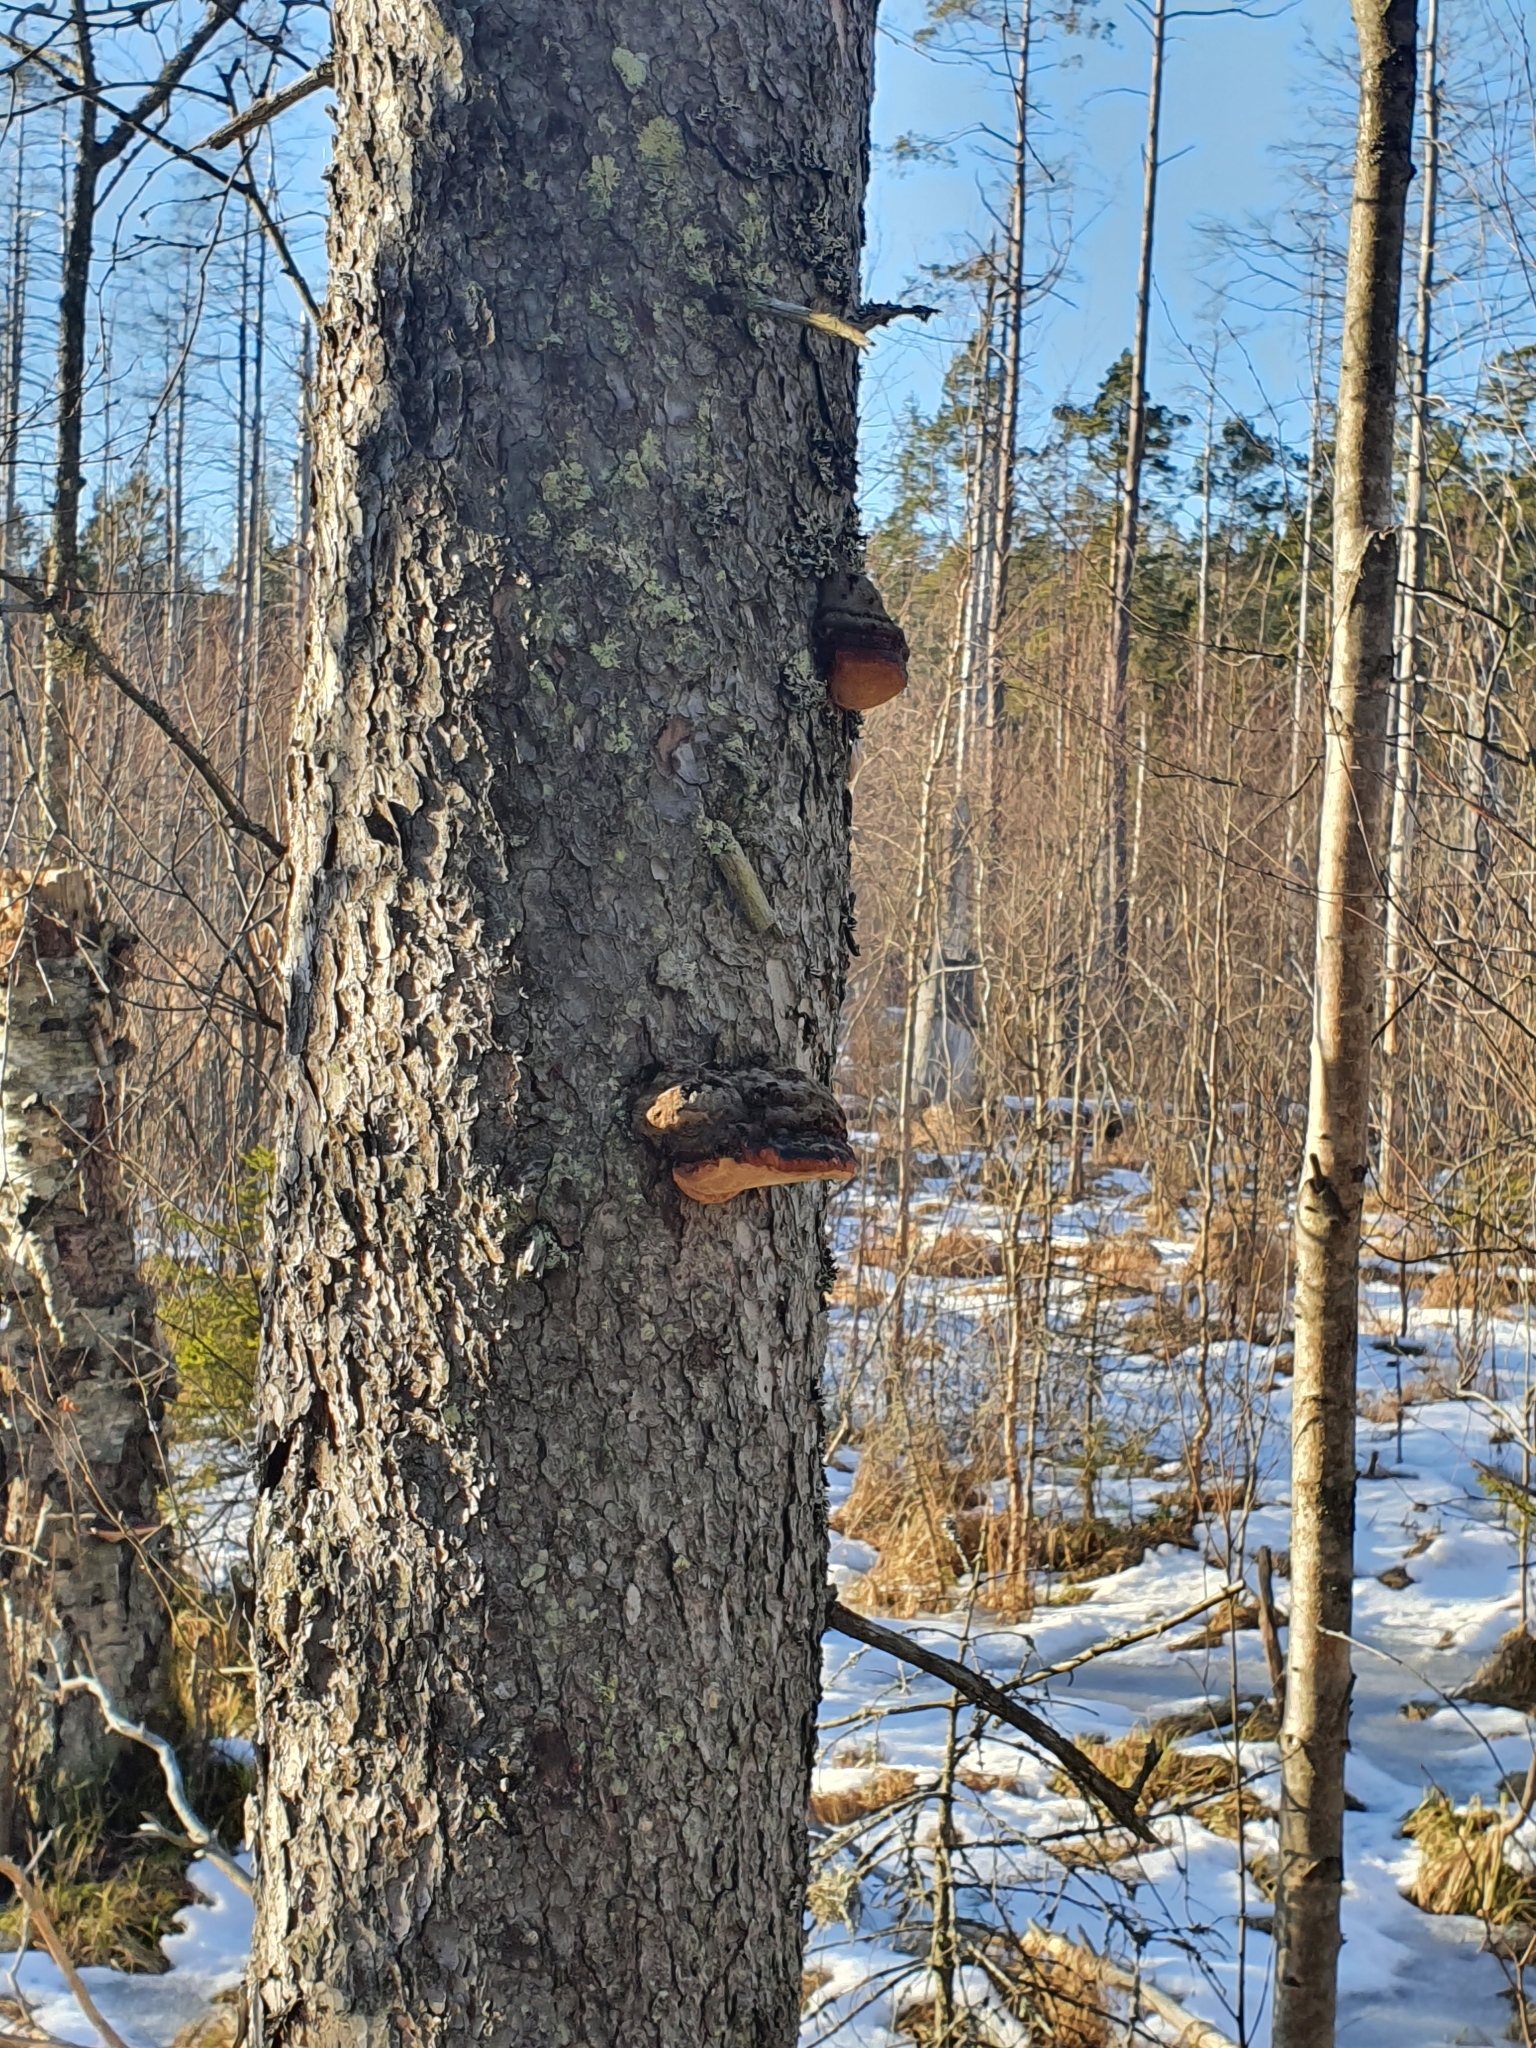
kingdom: Fungi
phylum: Basidiomycota
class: Agaricomycetes
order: Polyporales
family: Fomitopsidaceae
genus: Fomitopsis
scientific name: Fomitopsis pinicola
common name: Red-belted bracket
